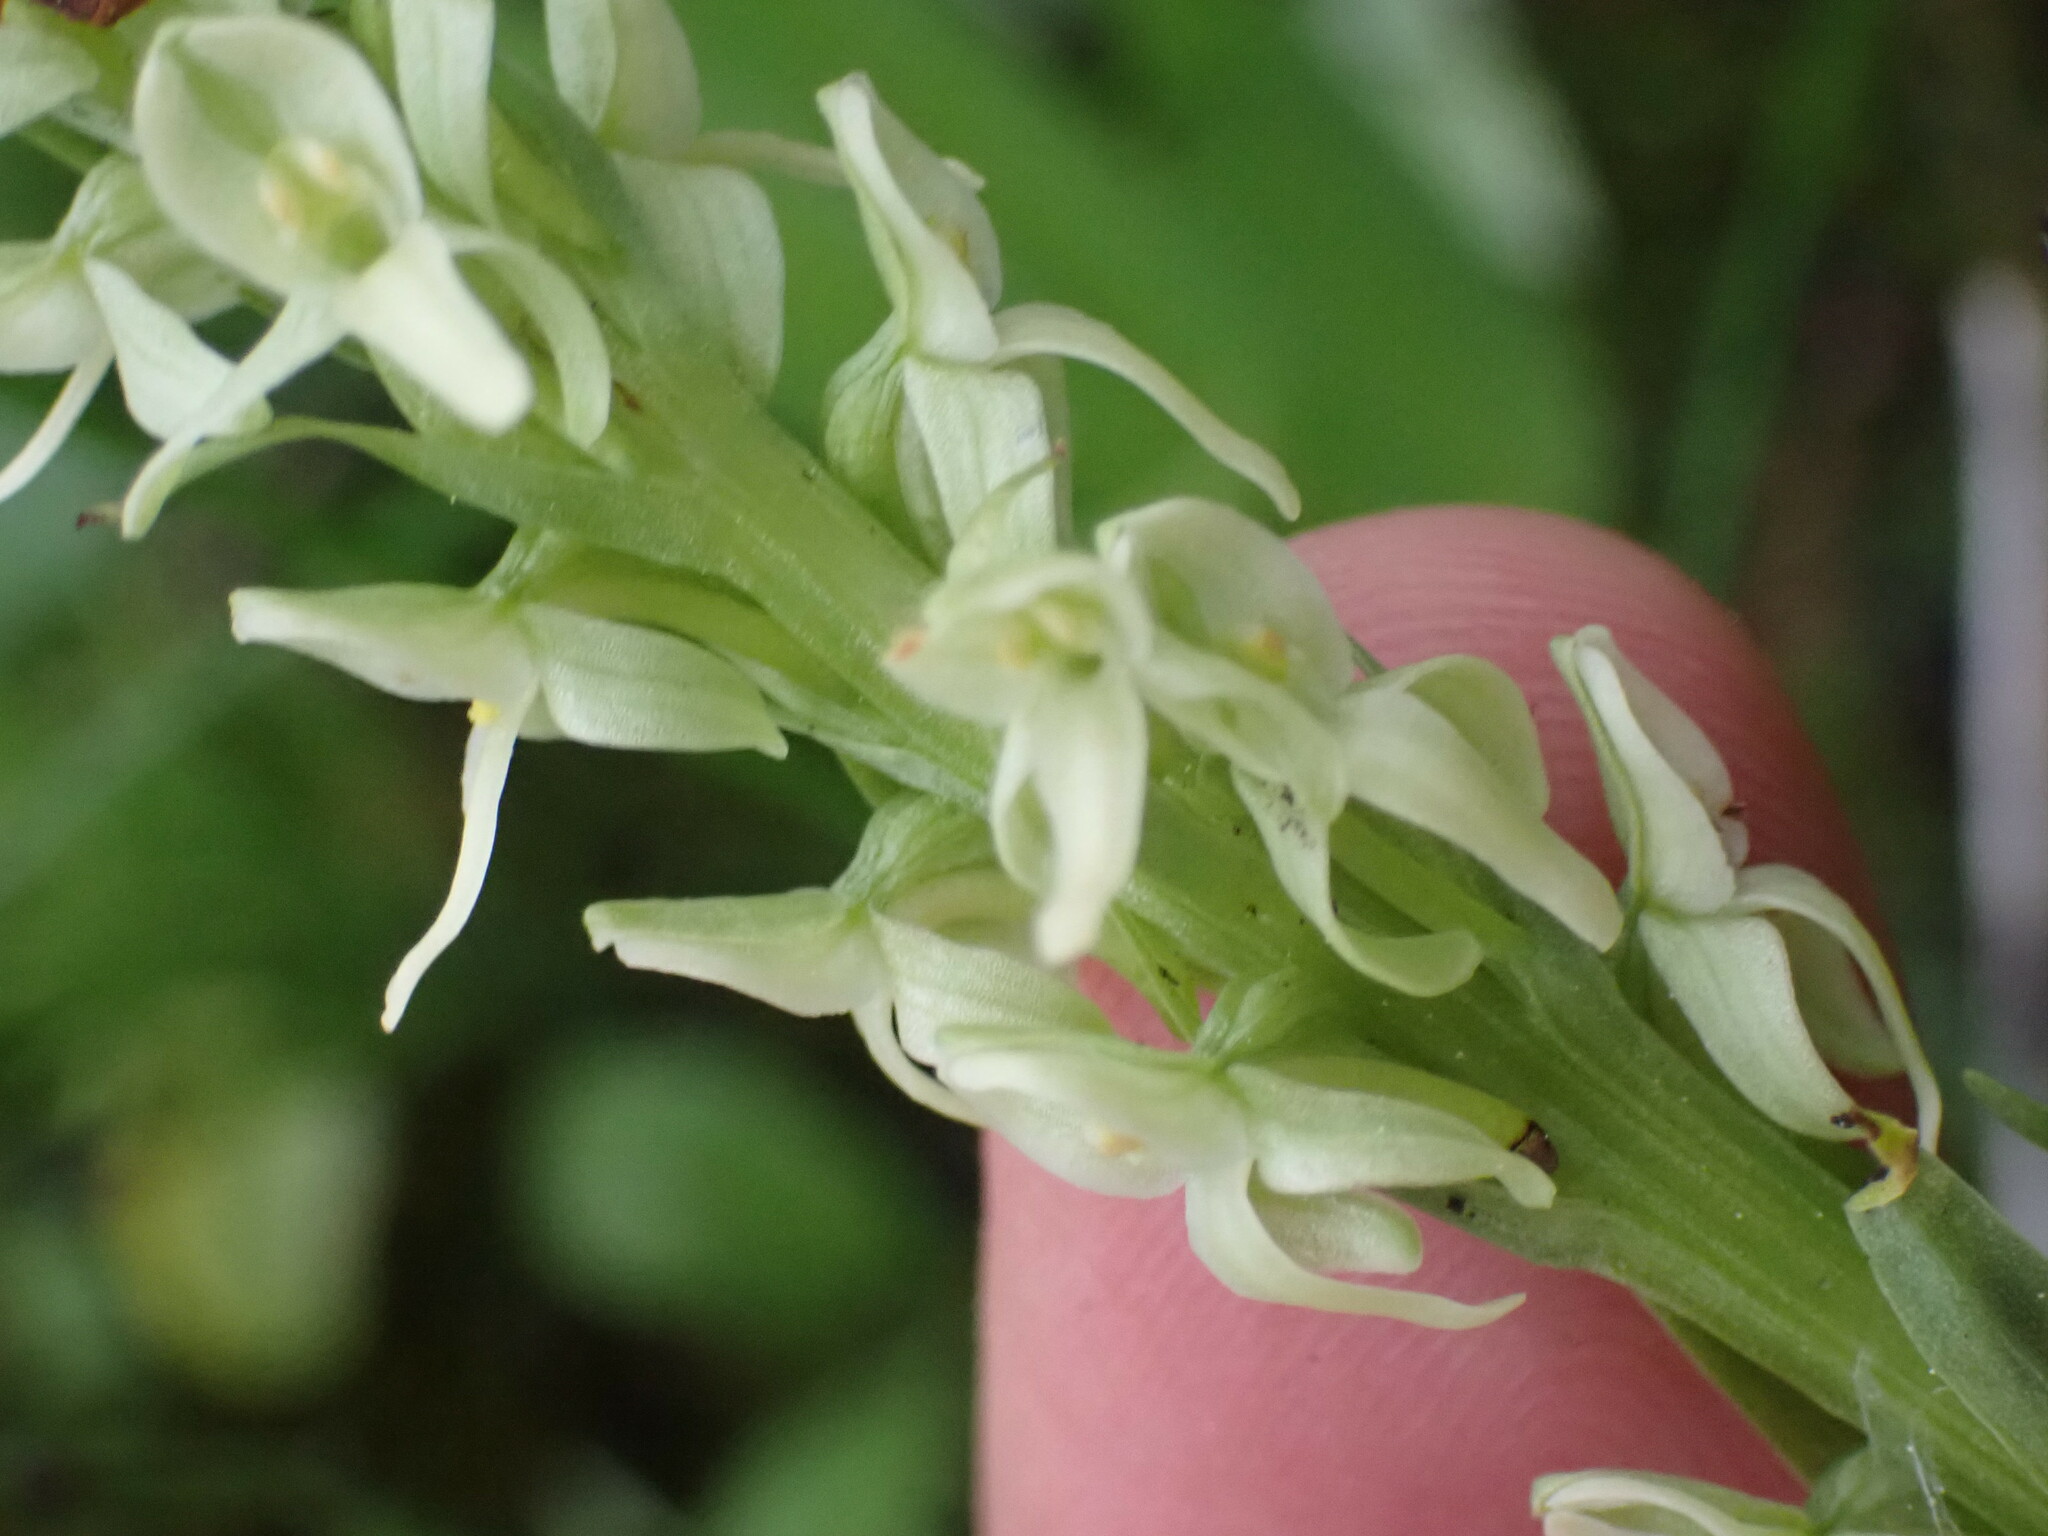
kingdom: Plantae
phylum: Tracheophyta
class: Liliopsida
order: Asparagales
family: Orchidaceae
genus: Platanthera
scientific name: Platanthera huronensis
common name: Fragrant green orchid
